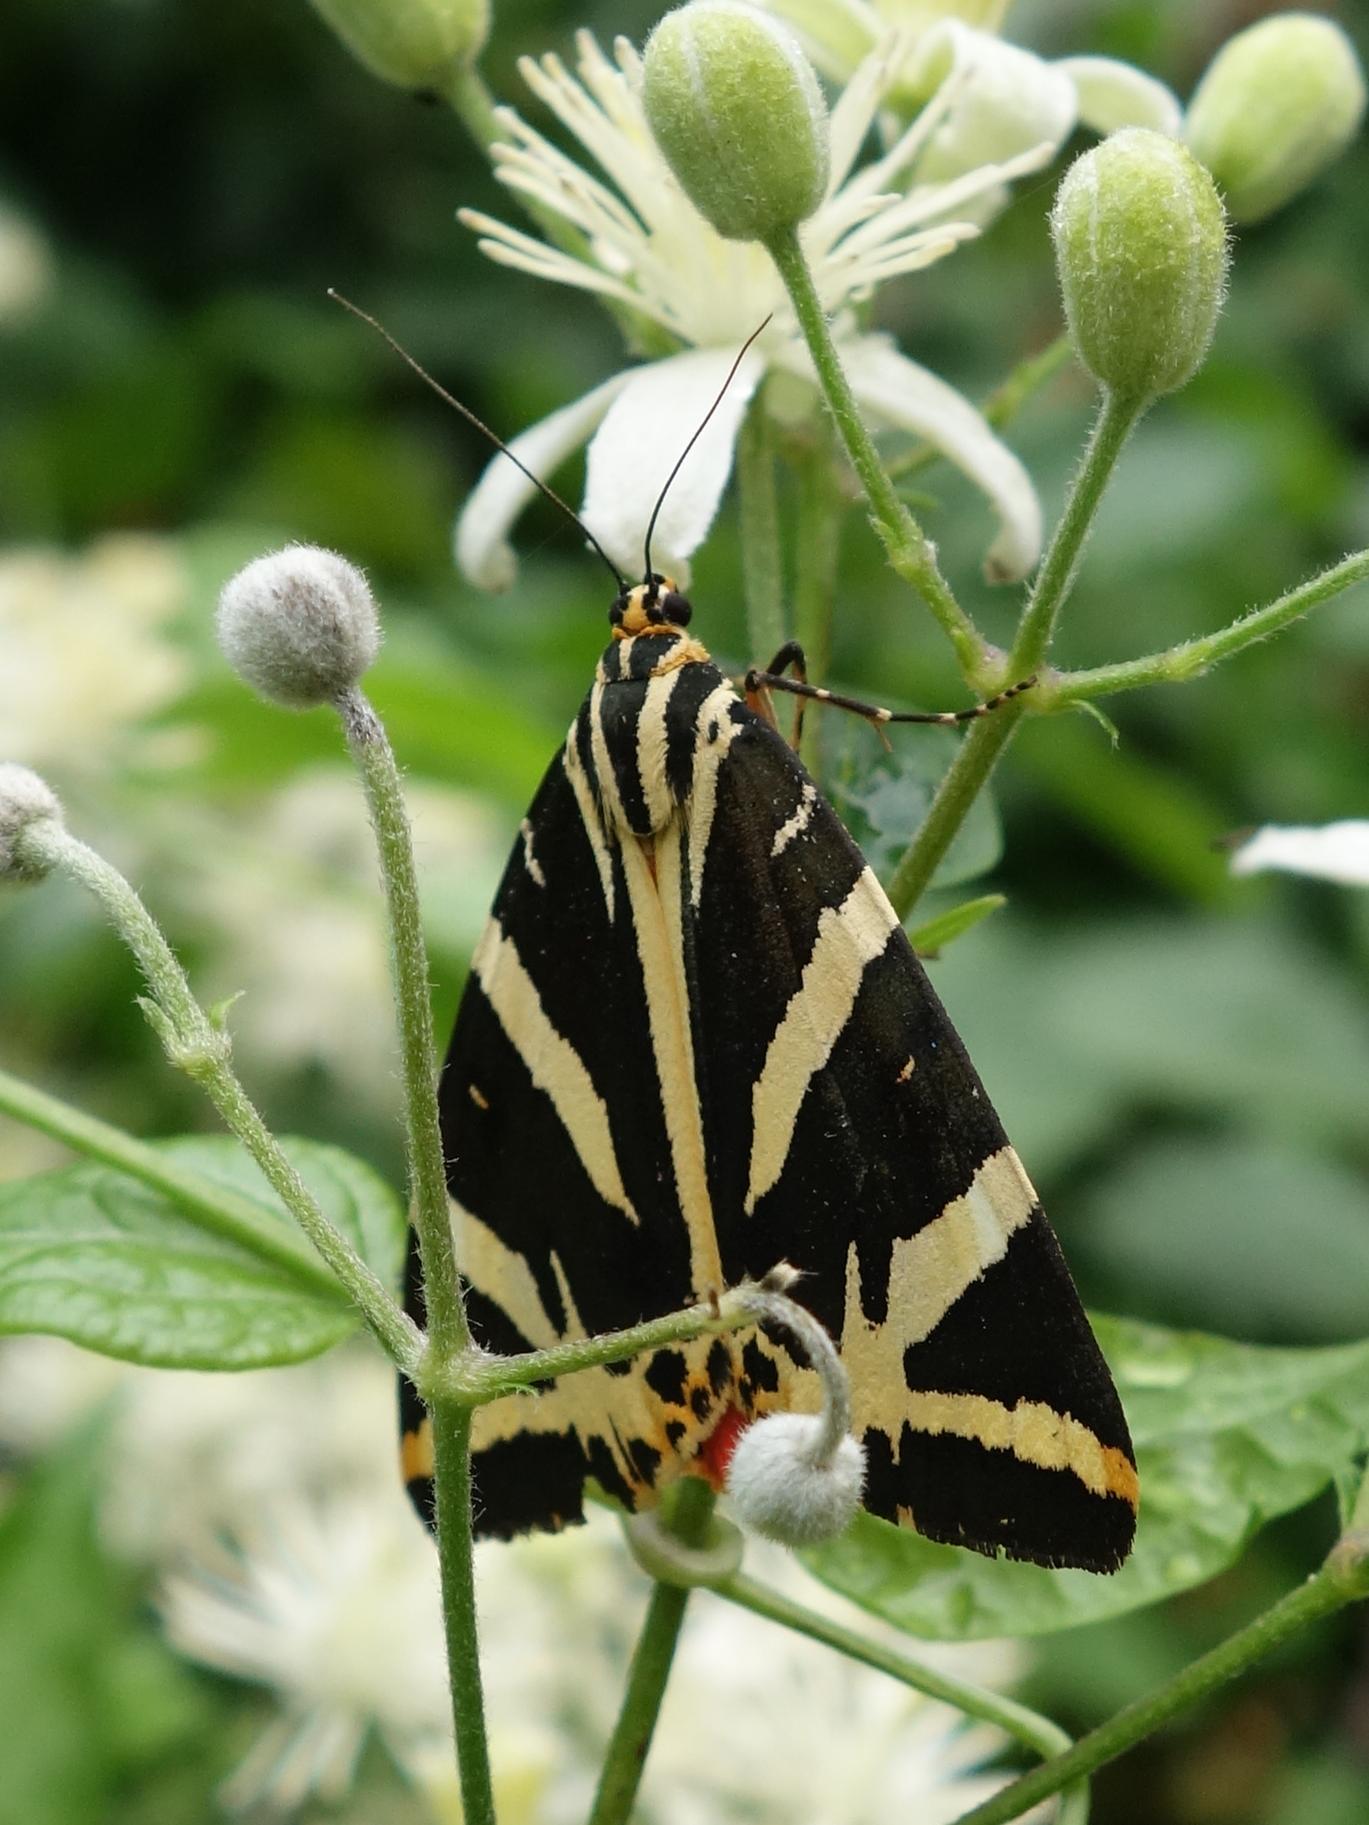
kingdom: Animalia
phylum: Arthropoda
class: Insecta
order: Lepidoptera
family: Erebidae
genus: Euplagia
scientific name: Euplagia quadripunctaria
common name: Jersey tiger
